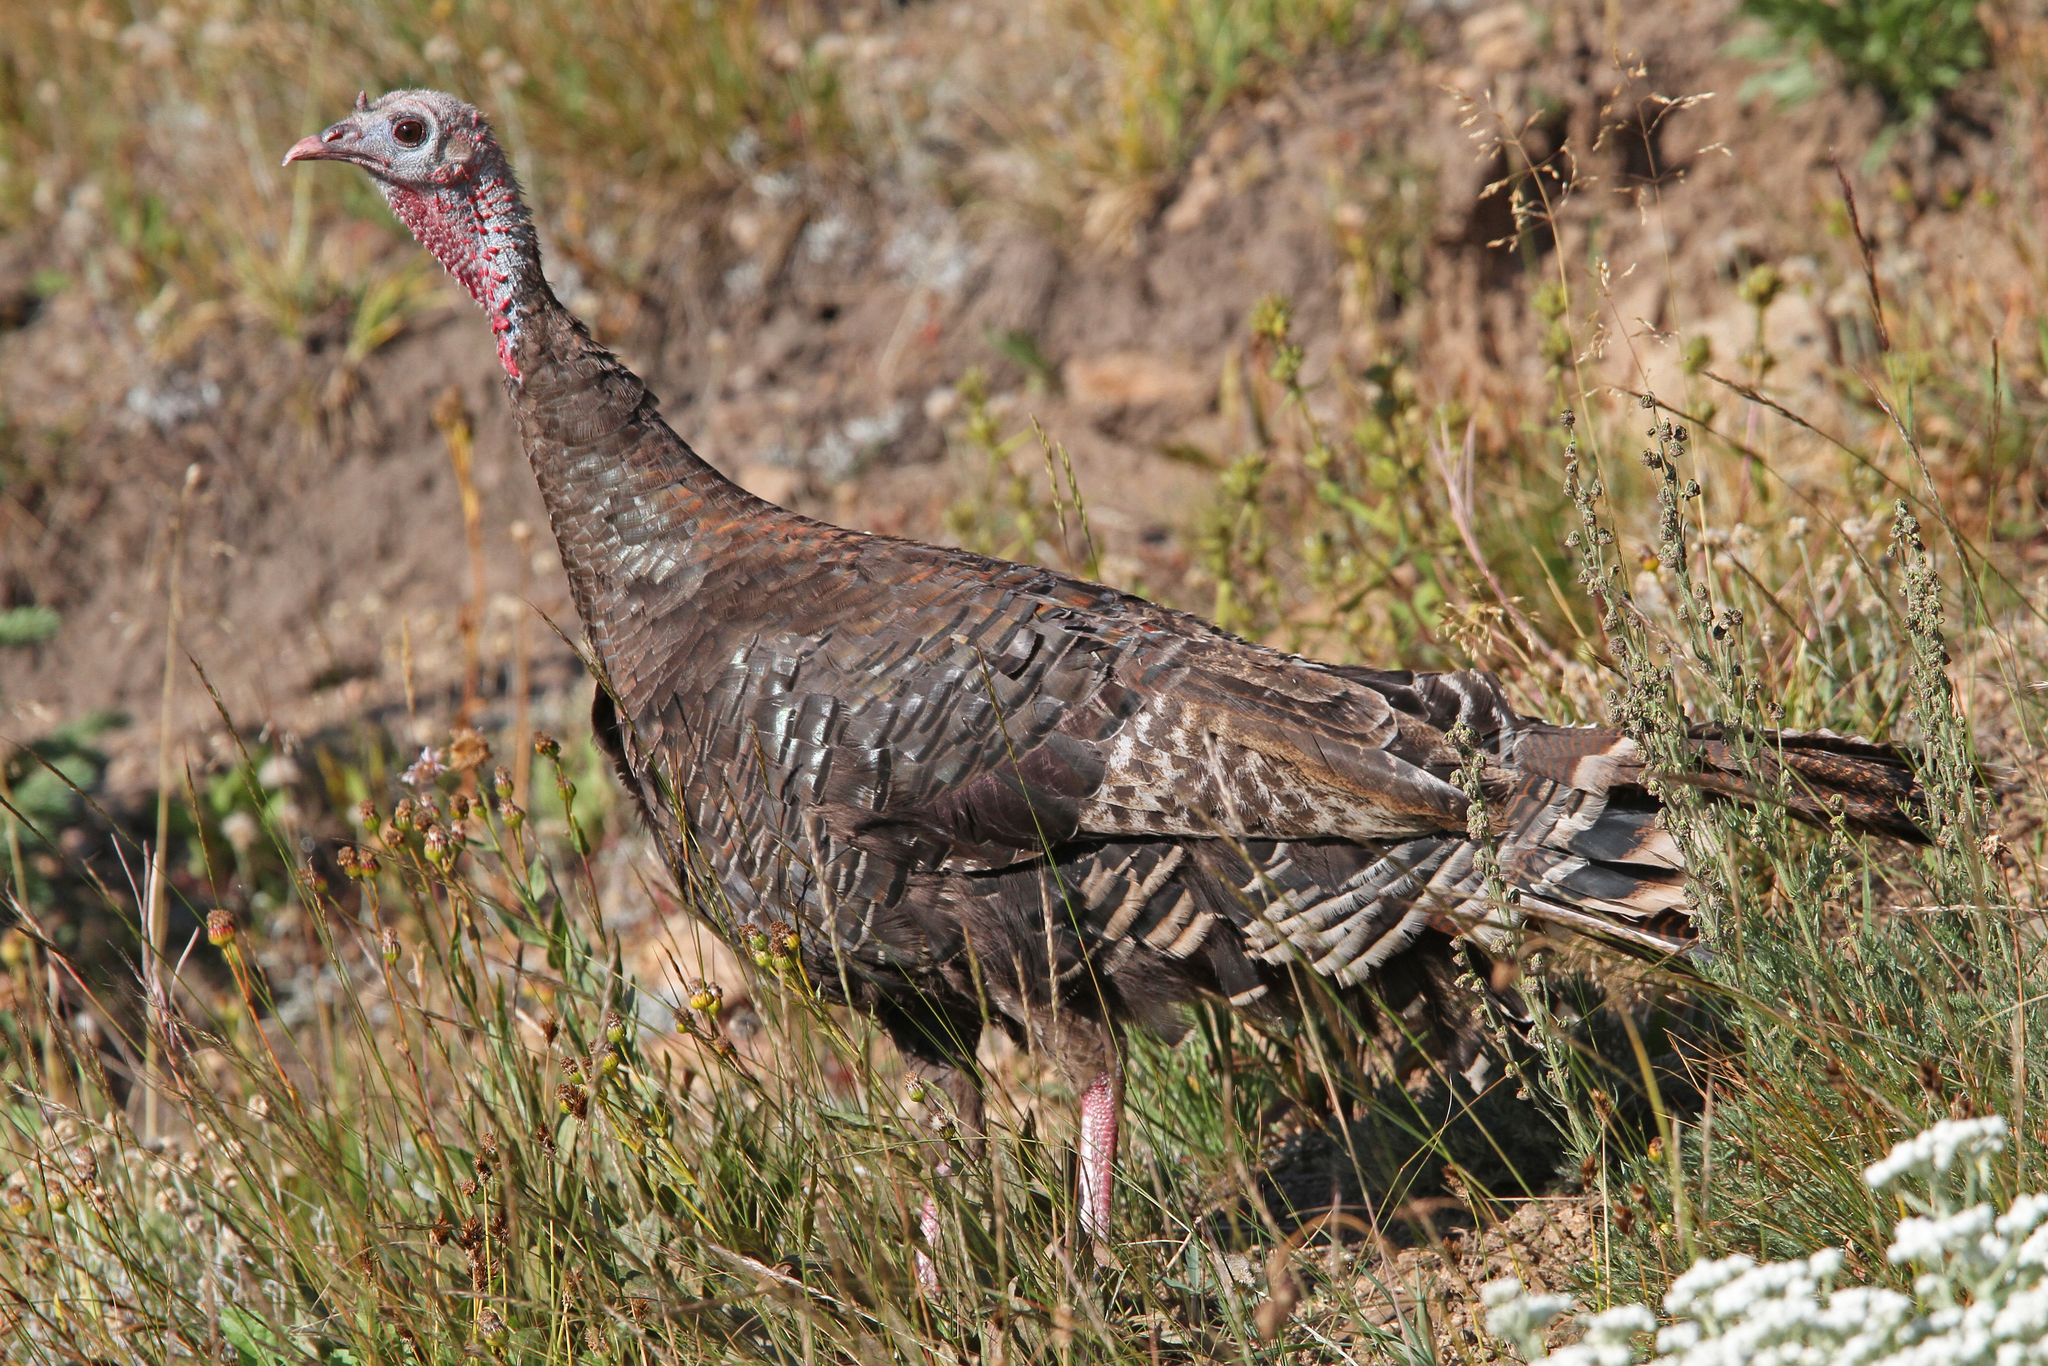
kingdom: Animalia
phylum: Chordata
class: Aves
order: Galliformes
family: Phasianidae
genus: Meleagris
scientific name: Meleagris gallopavo
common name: Wild turkey
